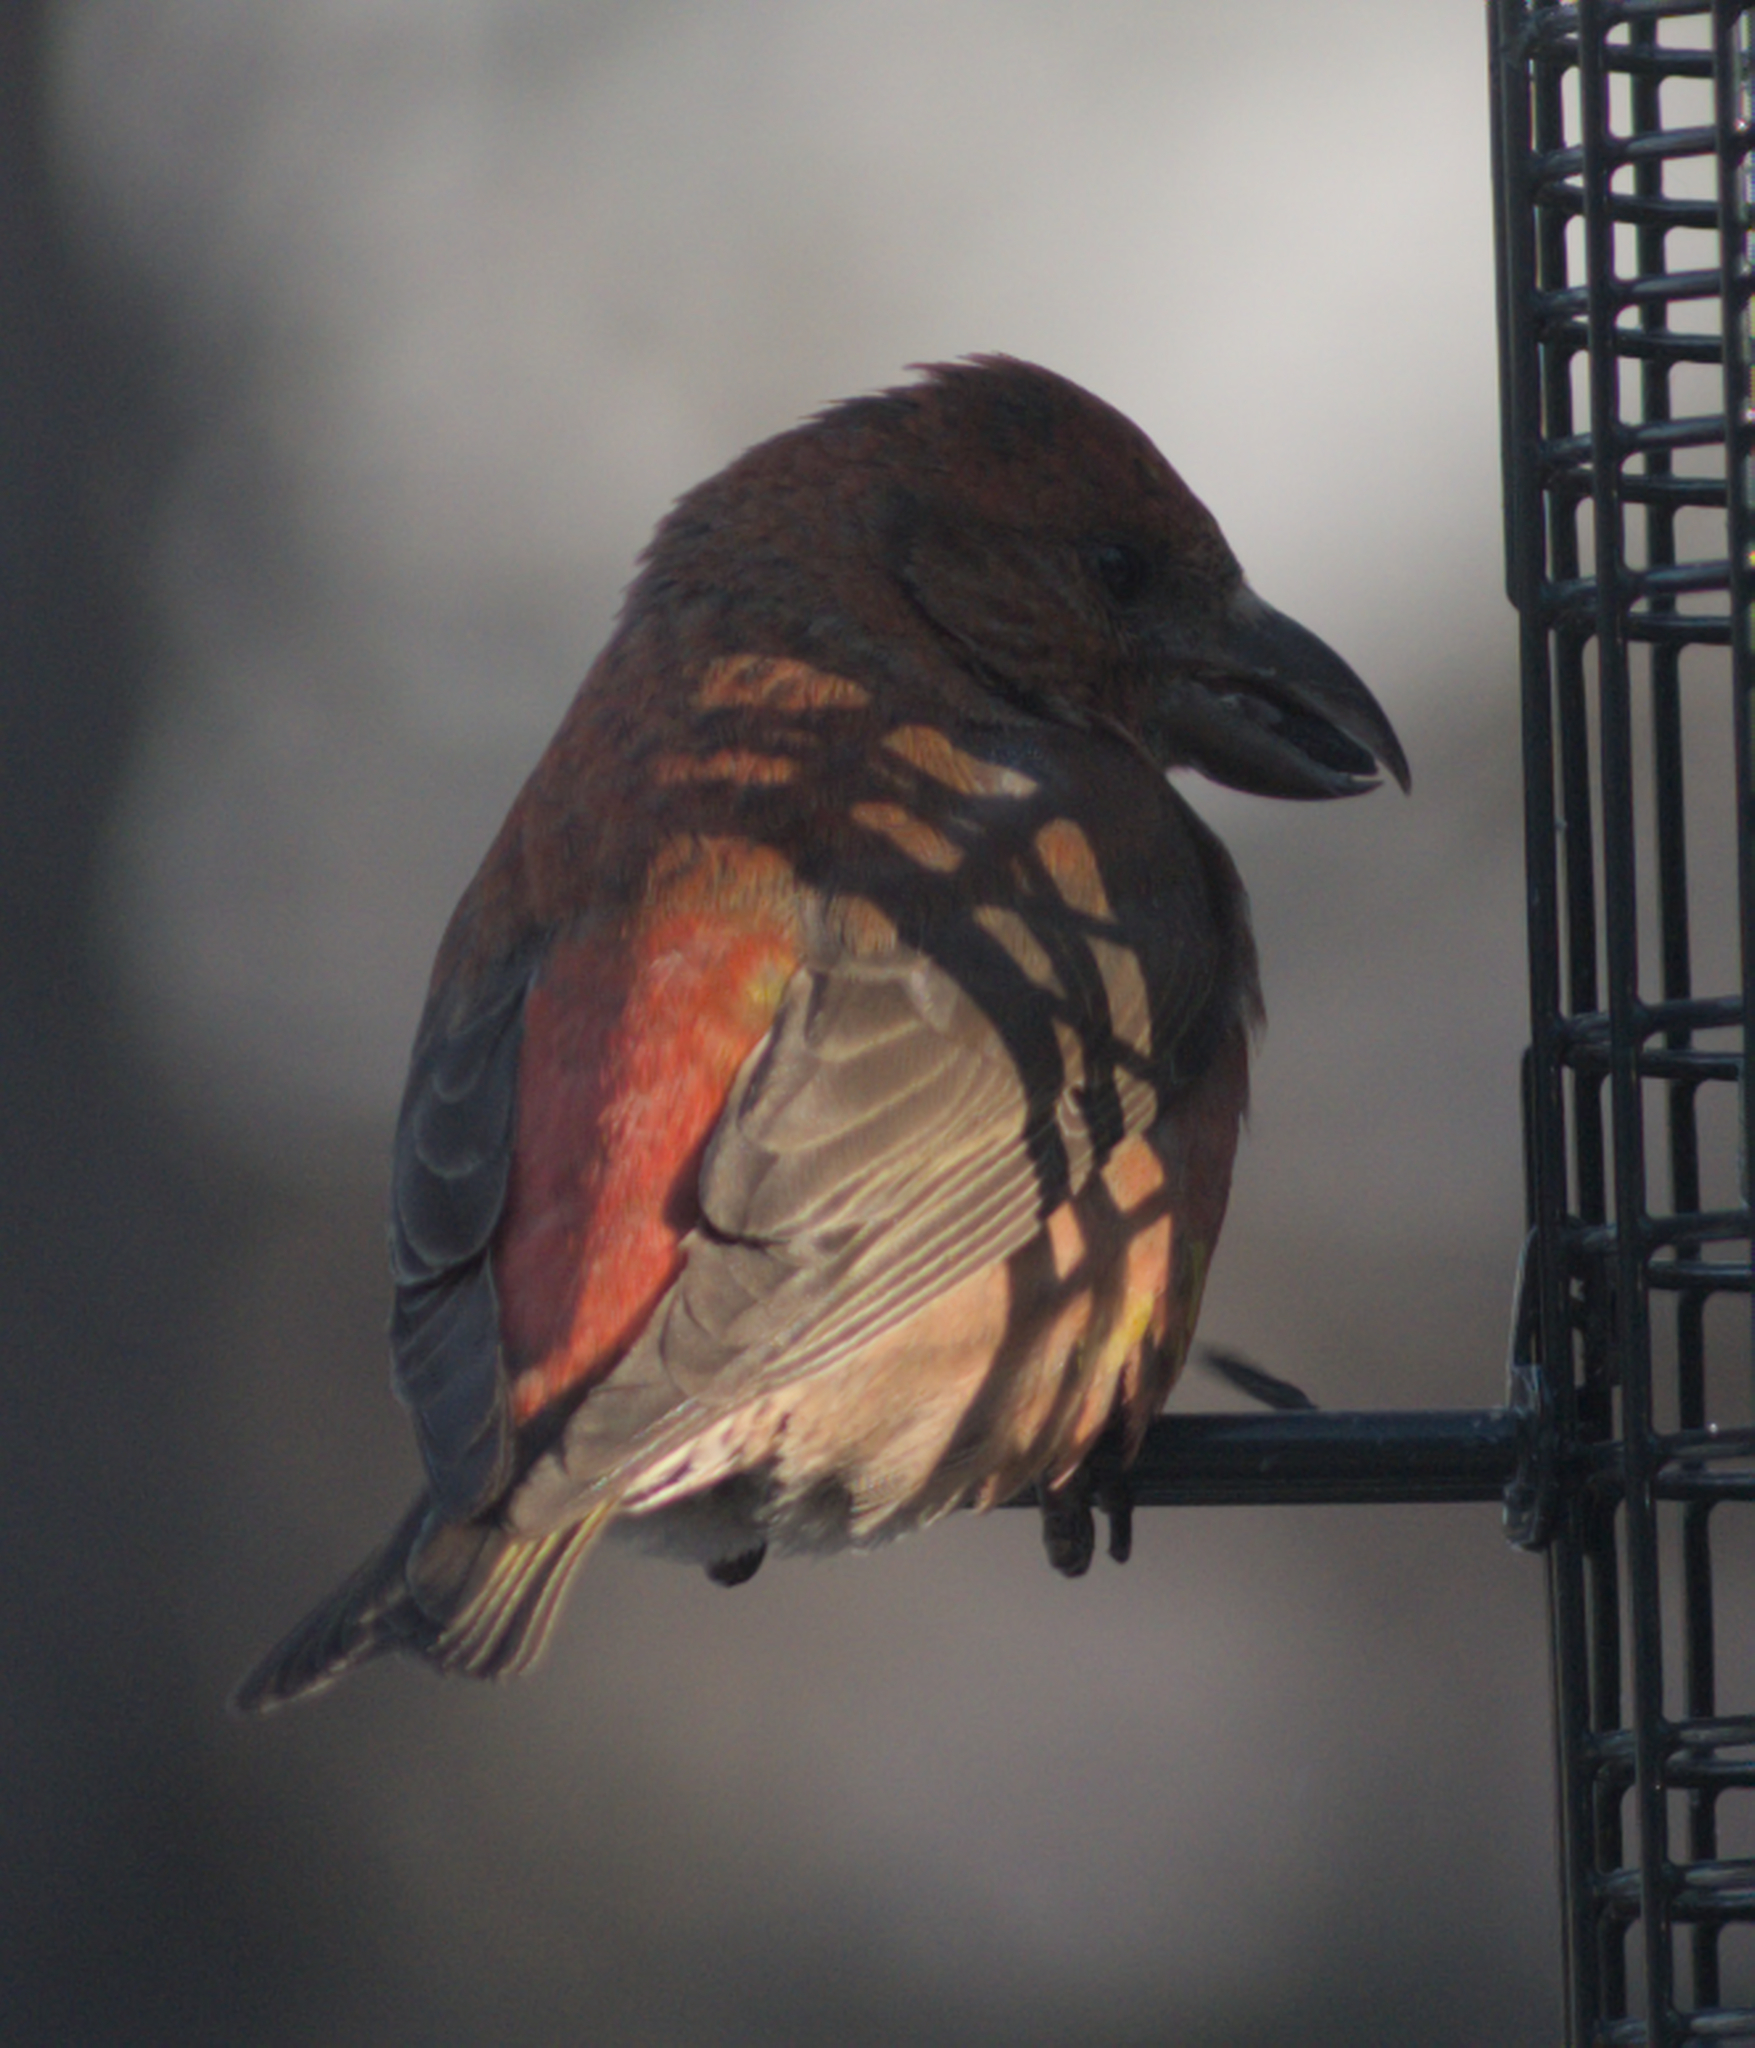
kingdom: Animalia
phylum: Chordata
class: Aves
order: Passeriformes
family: Fringillidae
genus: Loxia
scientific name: Loxia curvirostra
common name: Red crossbill
